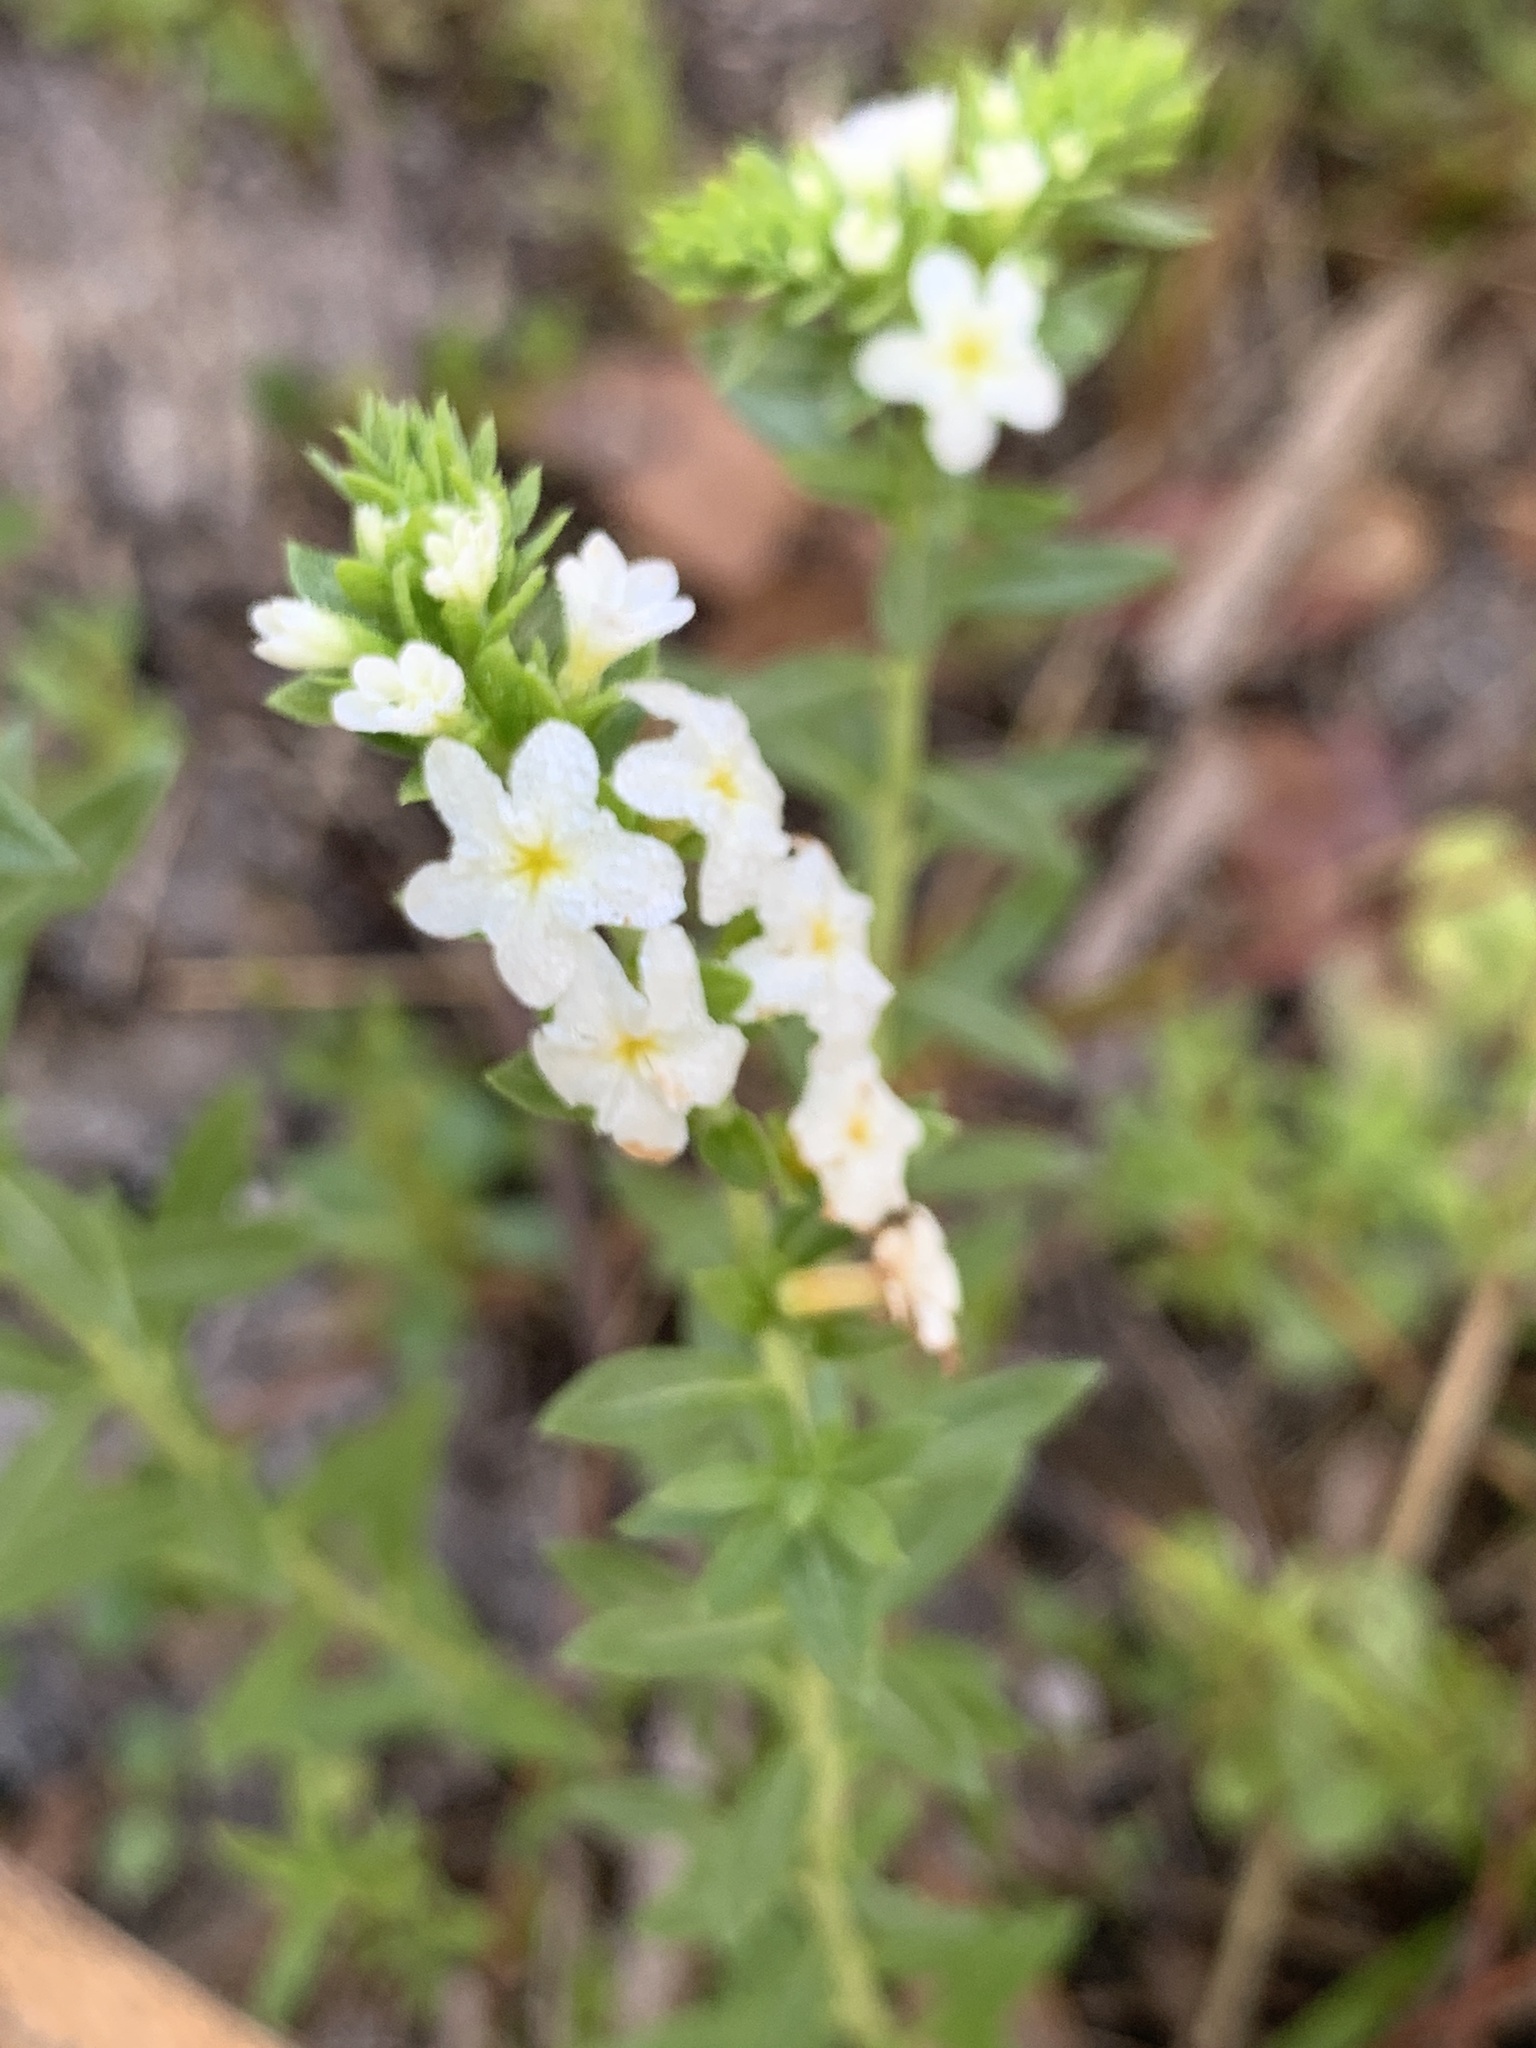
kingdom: Plantae
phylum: Tracheophyta
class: Magnoliopsida
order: Boraginales
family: Heliotropiaceae
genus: Euploca
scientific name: Euploca polyphylla
